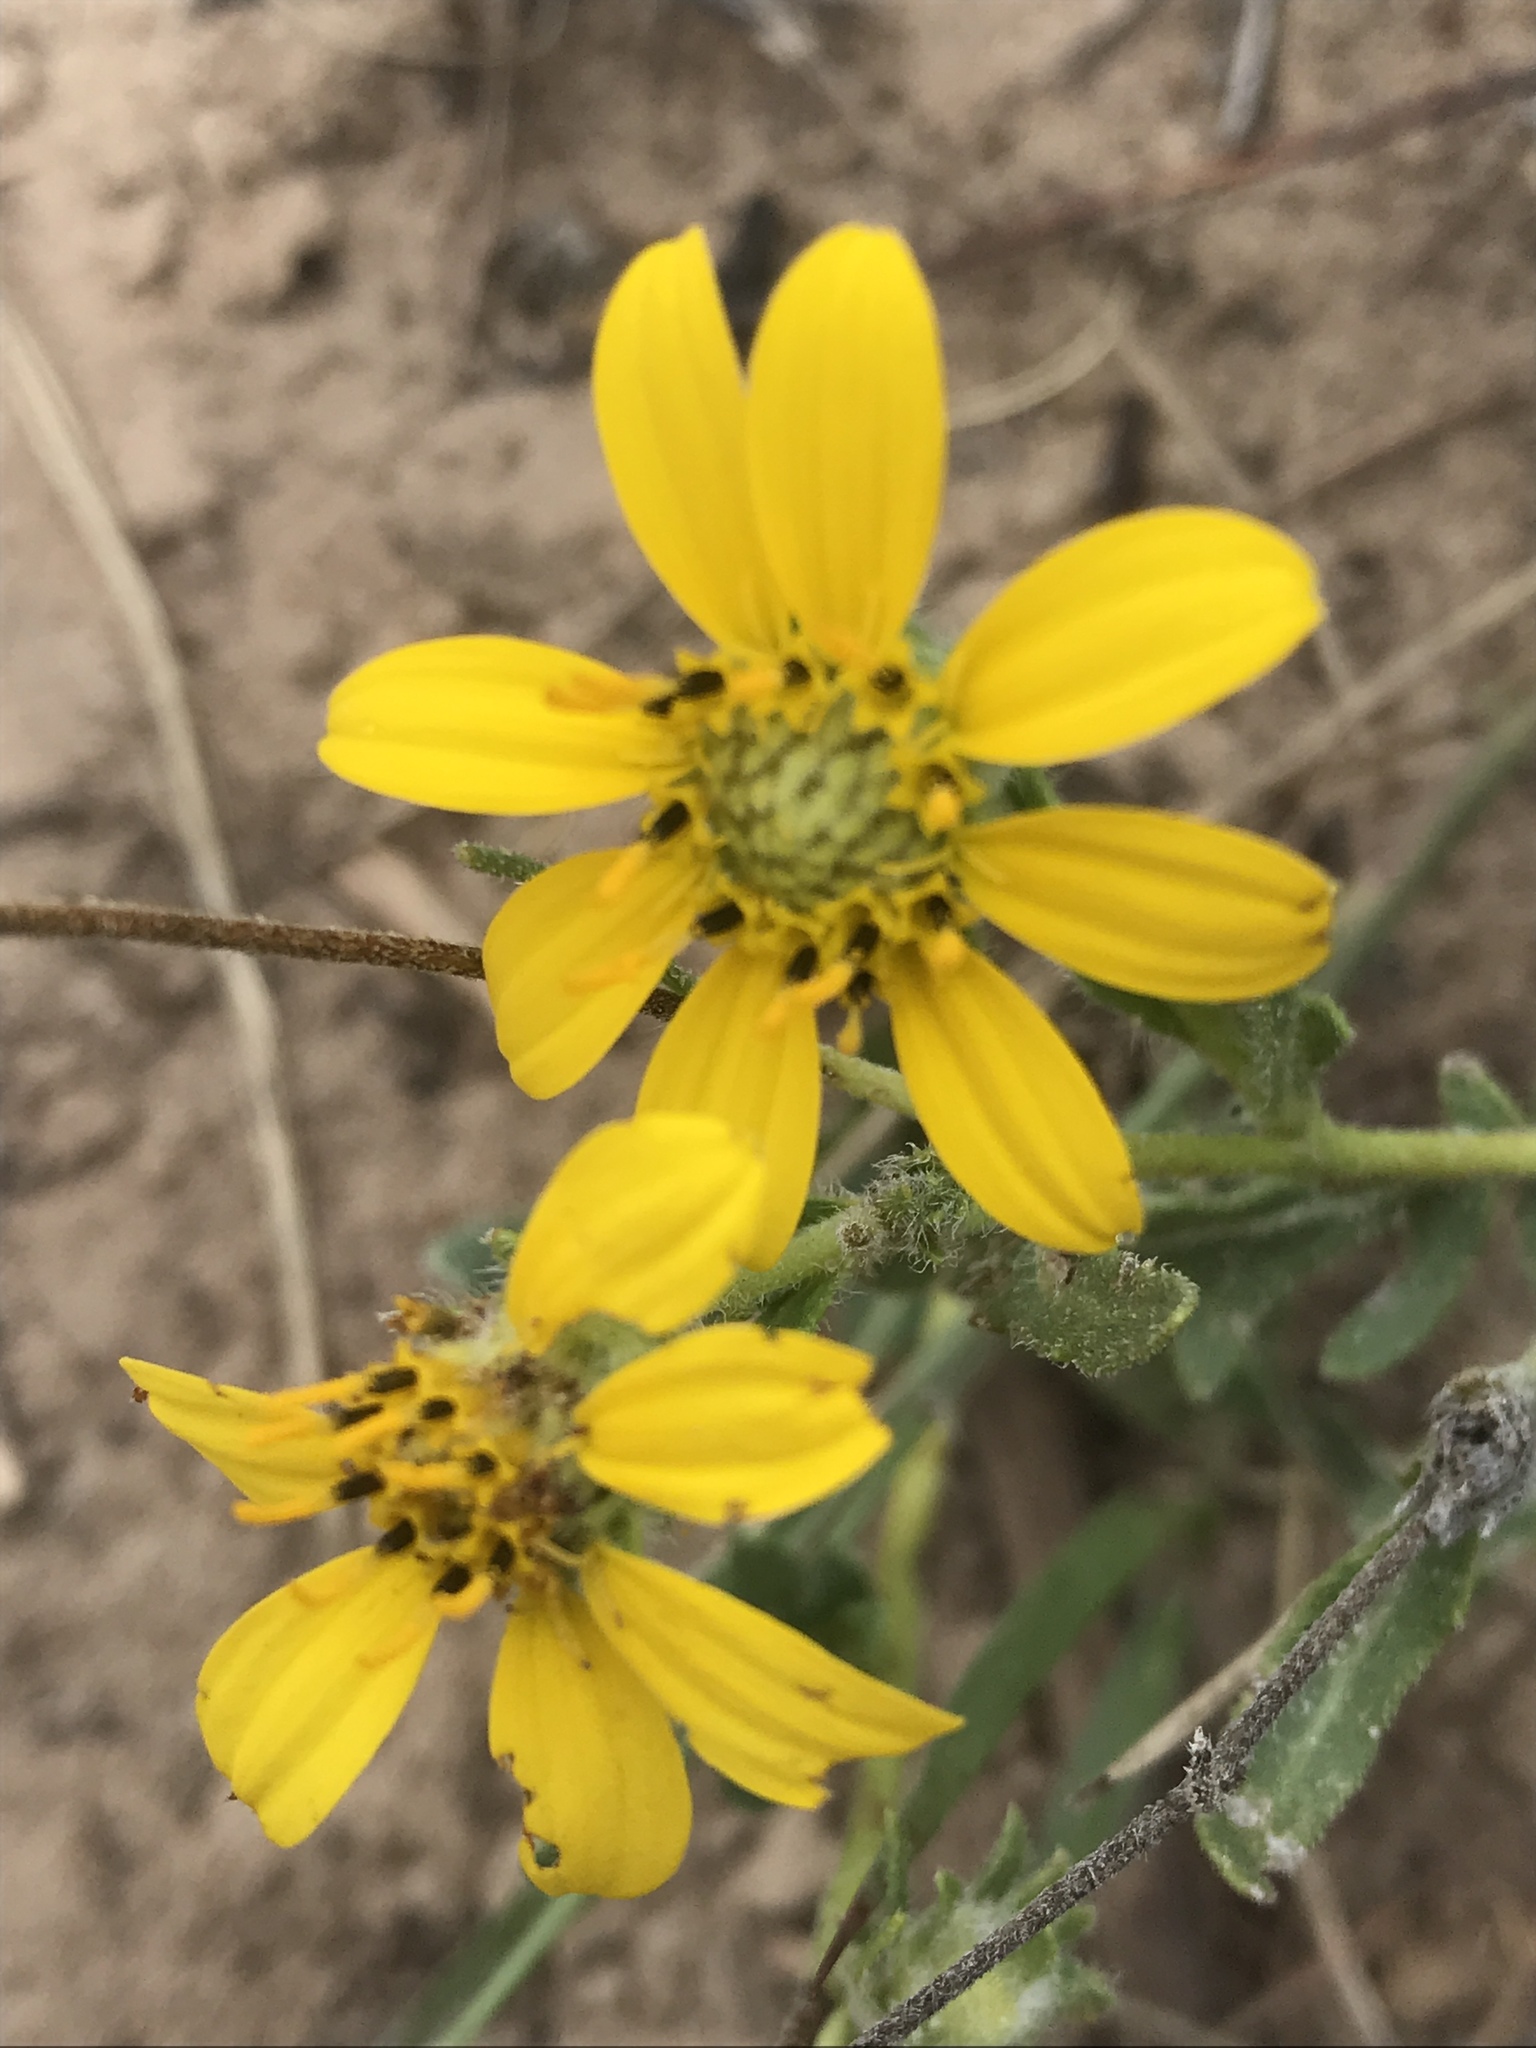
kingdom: Plantae
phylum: Tracheophyta
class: Magnoliopsida
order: Asterales
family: Asteraceae
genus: Engelmannia
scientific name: Engelmannia peristenia
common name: Engelmann's daisy
